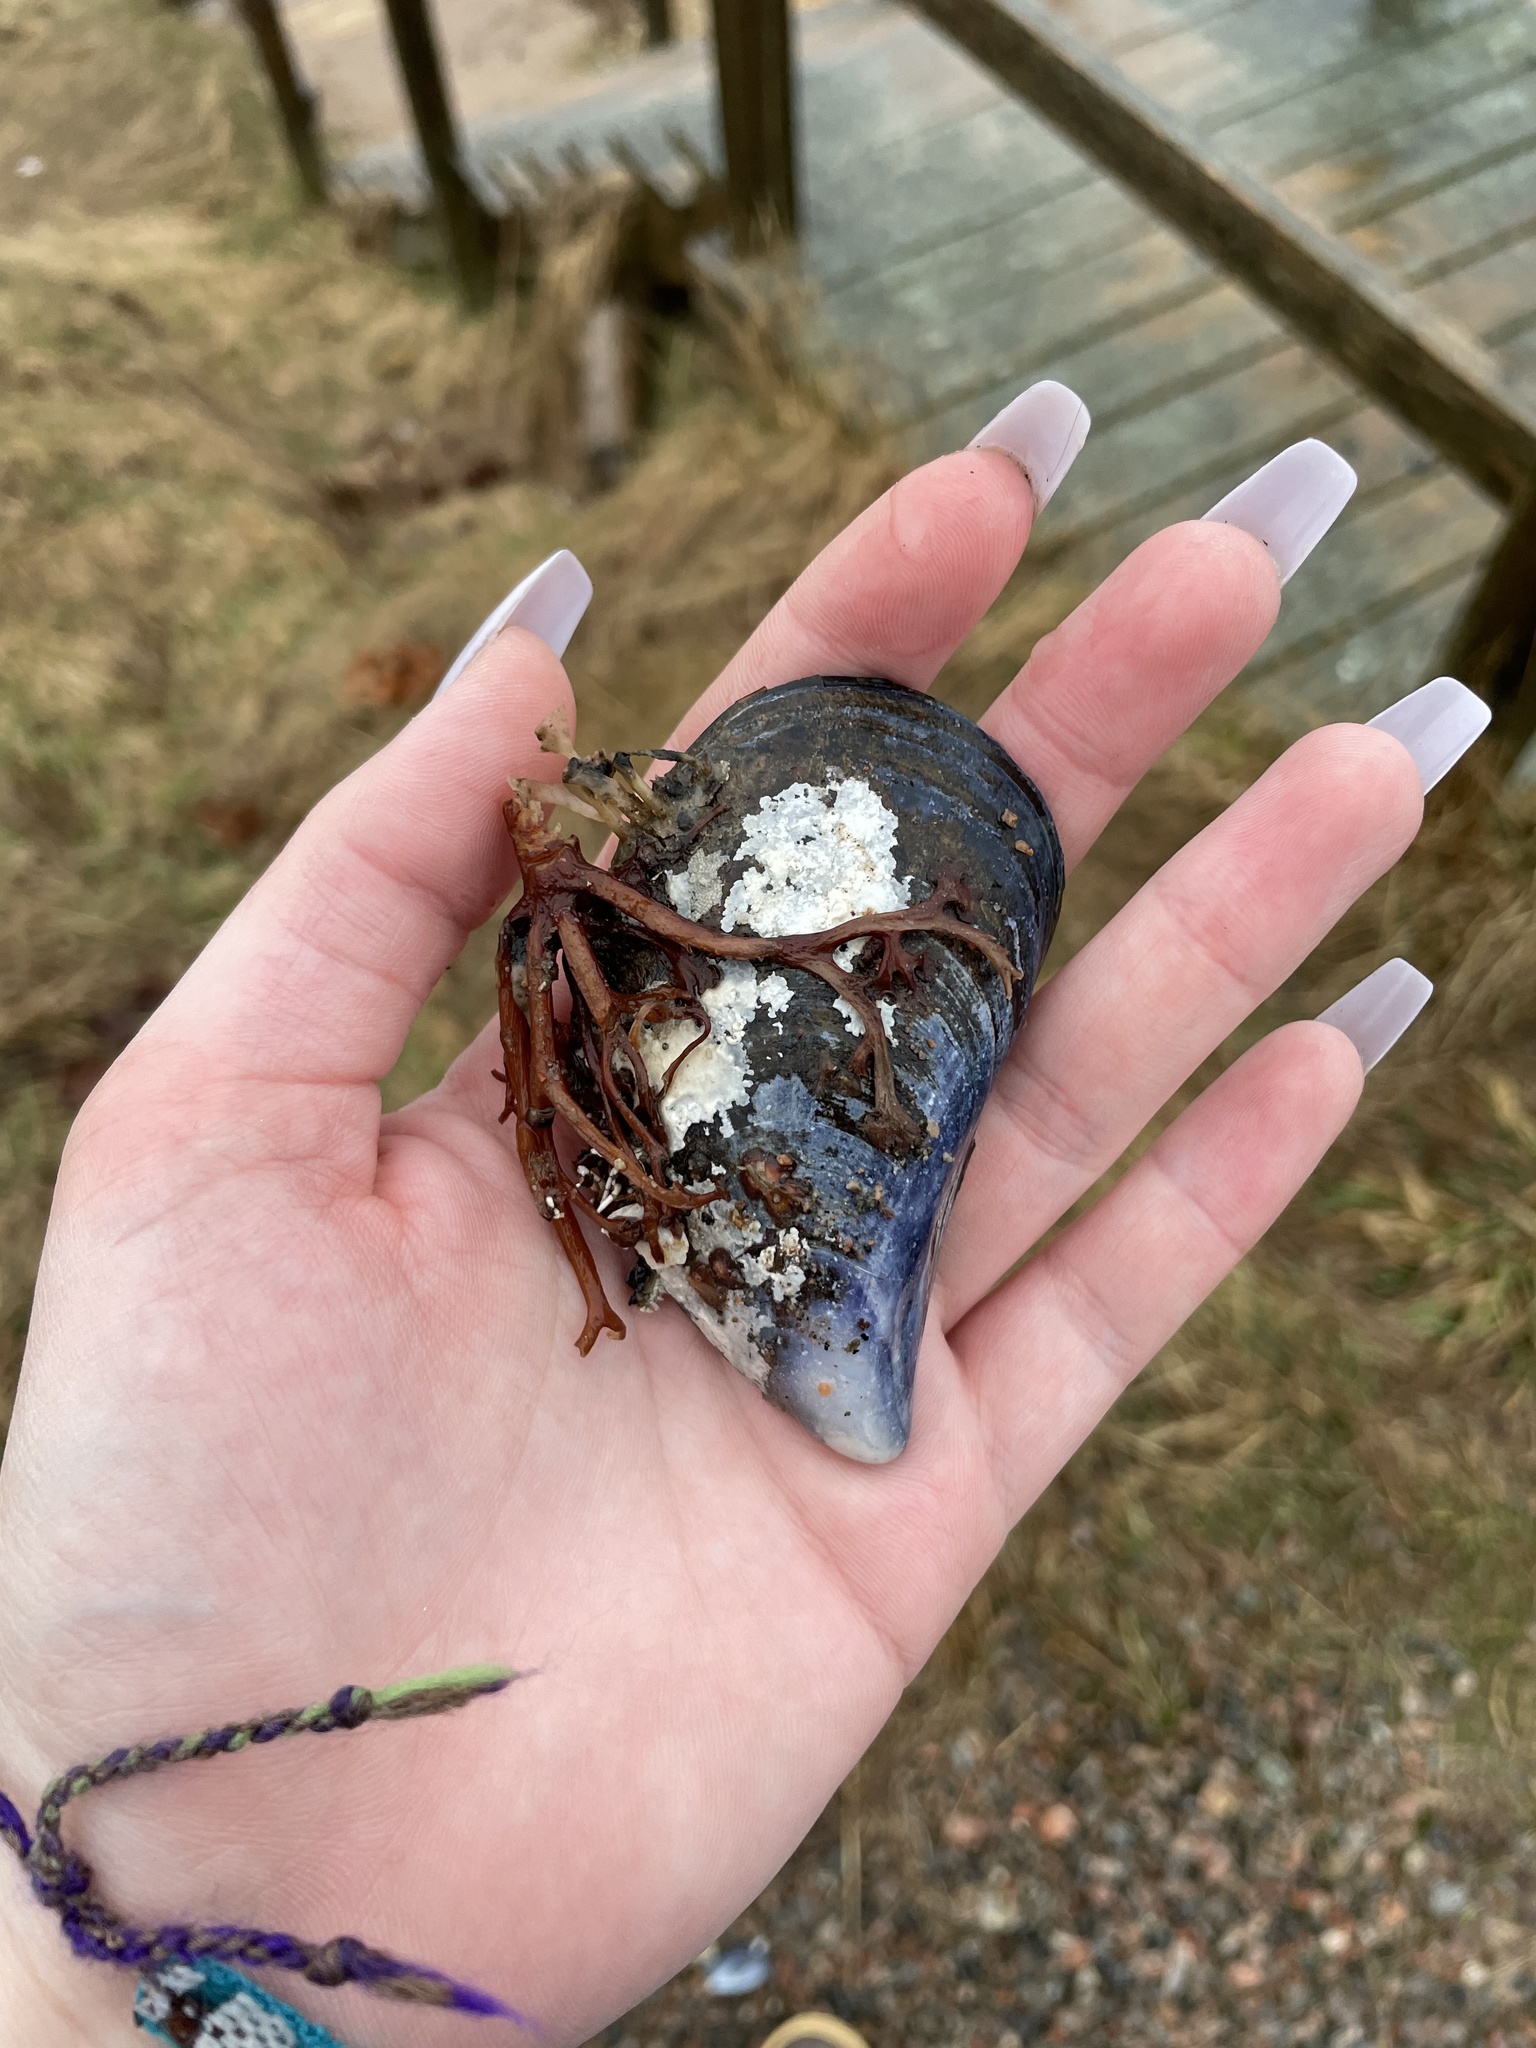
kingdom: Animalia
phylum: Mollusca
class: Bivalvia
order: Mytilida
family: Mytilidae
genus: Mytilus
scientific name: Mytilus edulis
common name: Blue mussel
